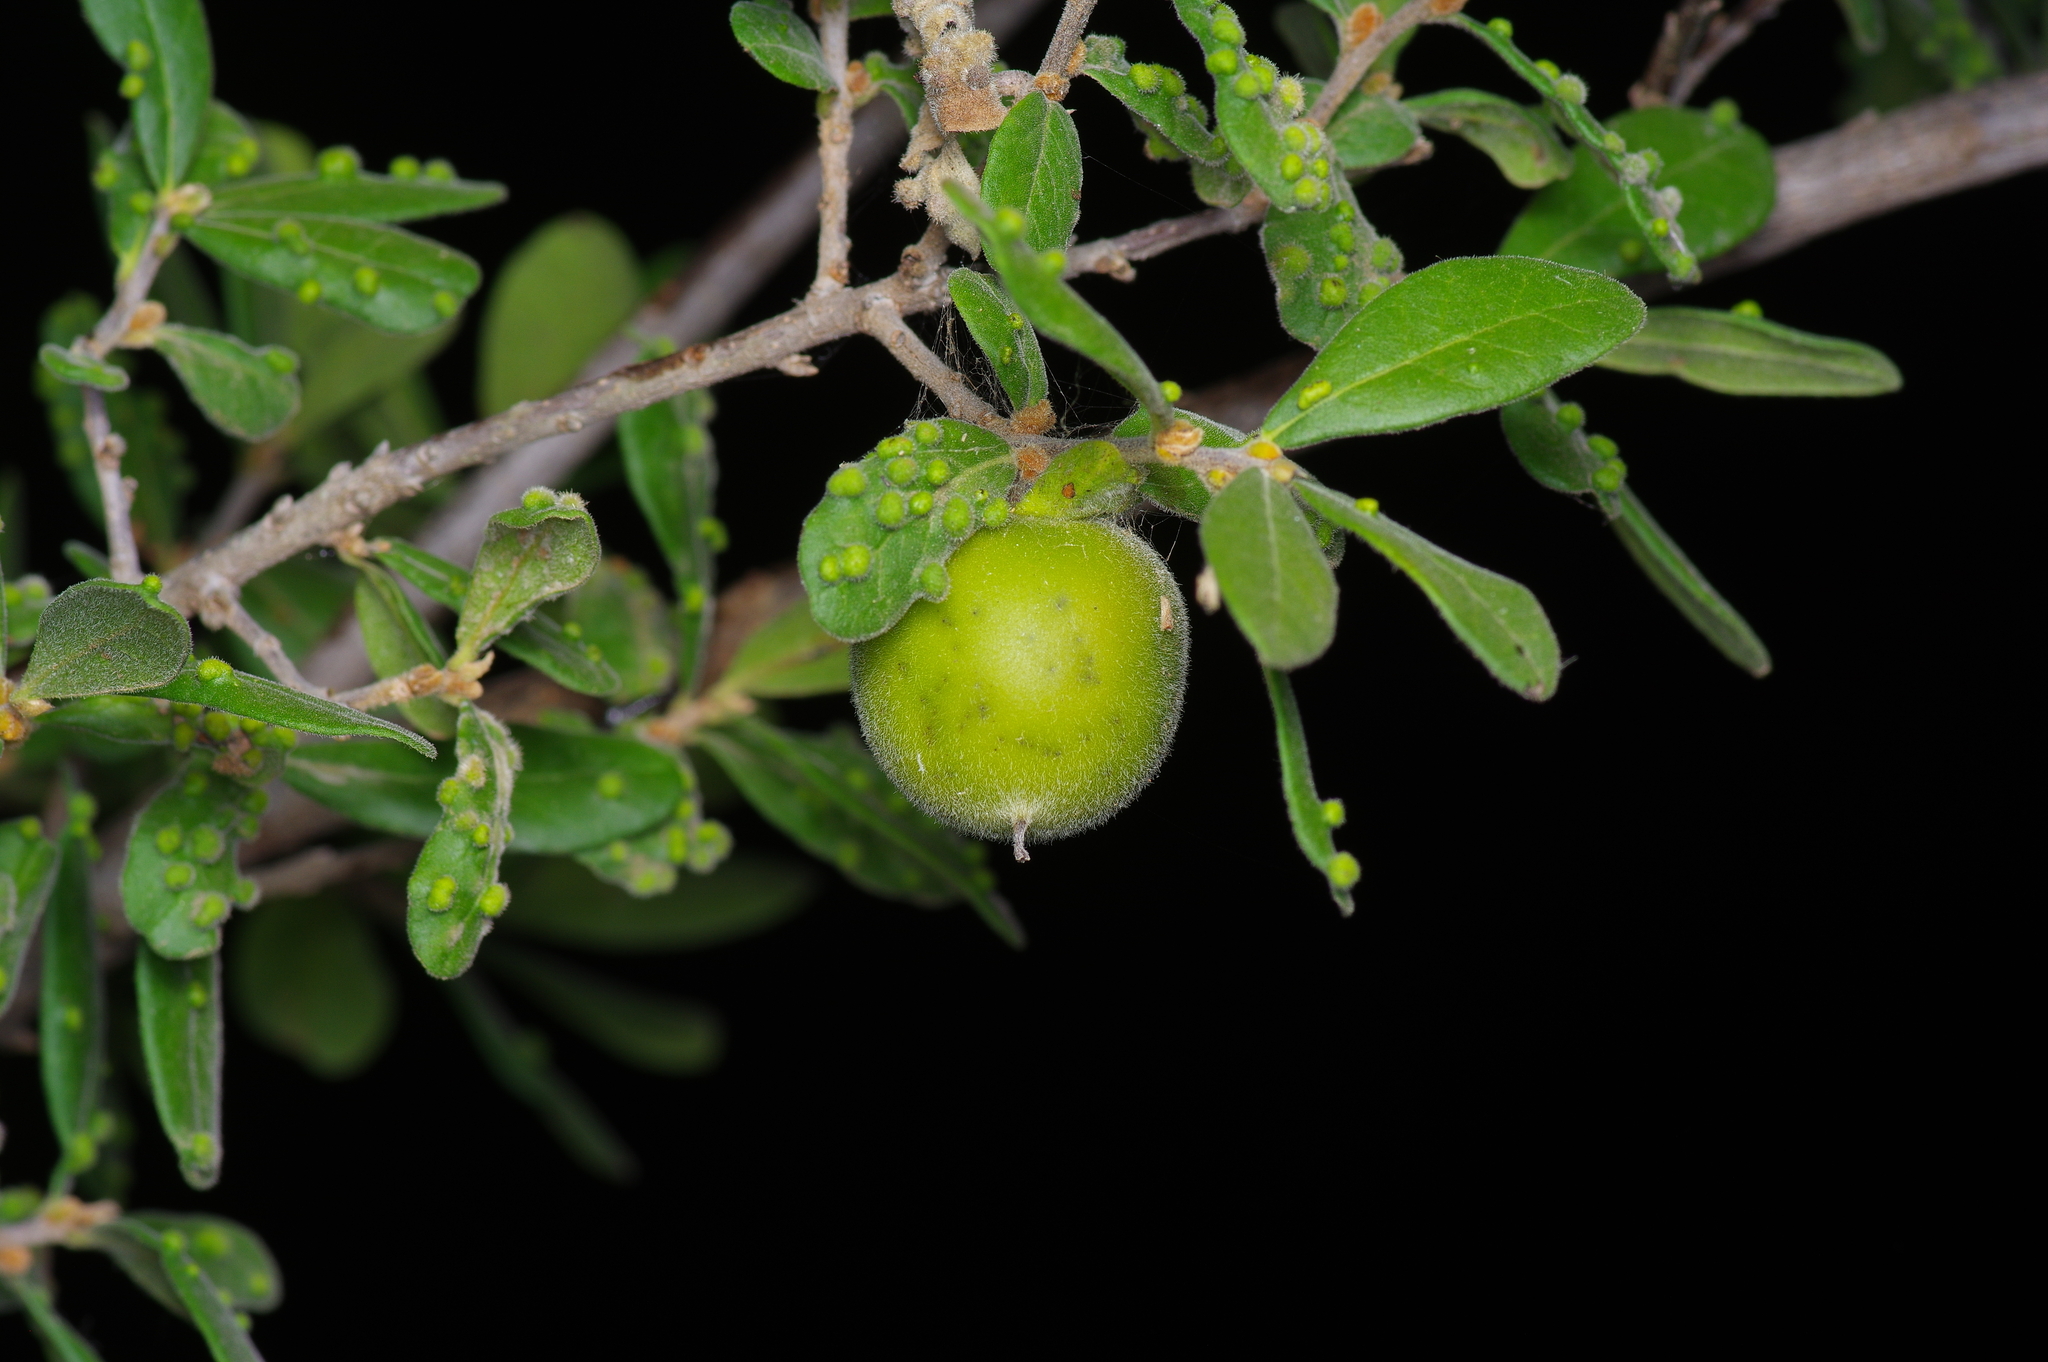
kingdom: Plantae
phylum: Tracheophyta
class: Magnoliopsida
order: Ericales
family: Ebenaceae
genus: Diospyros
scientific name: Diospyros texana
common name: Texas persimmon
